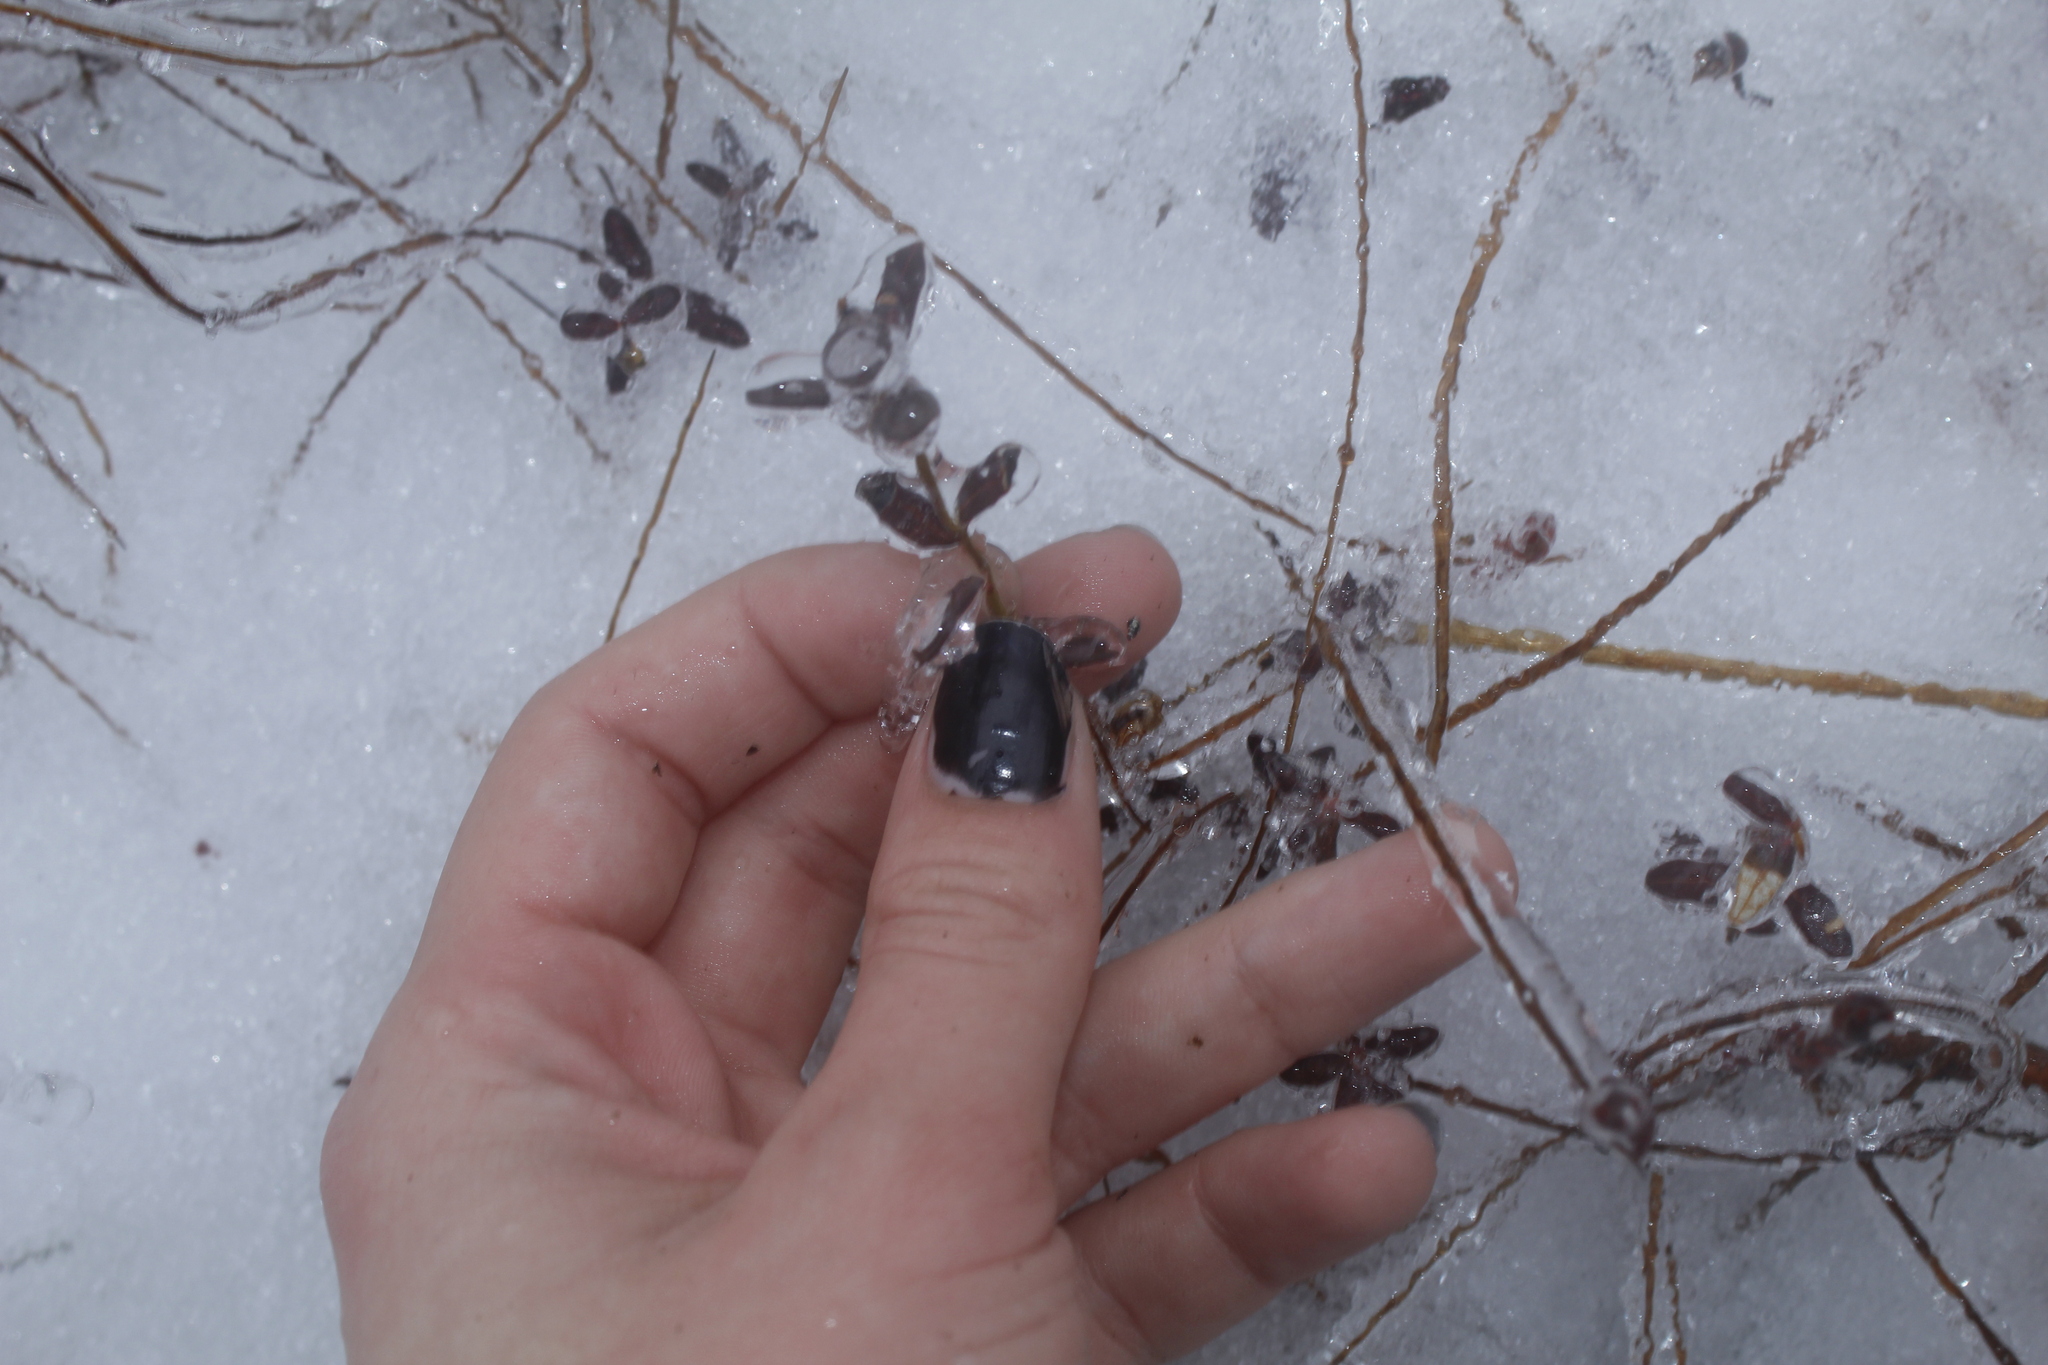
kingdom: Plantae
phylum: Tracheophyta
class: Magnoliopsida
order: Ericales
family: Ericaceae
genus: Vaccinium
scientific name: Vaccinium macrocarpon
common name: American cranberry
